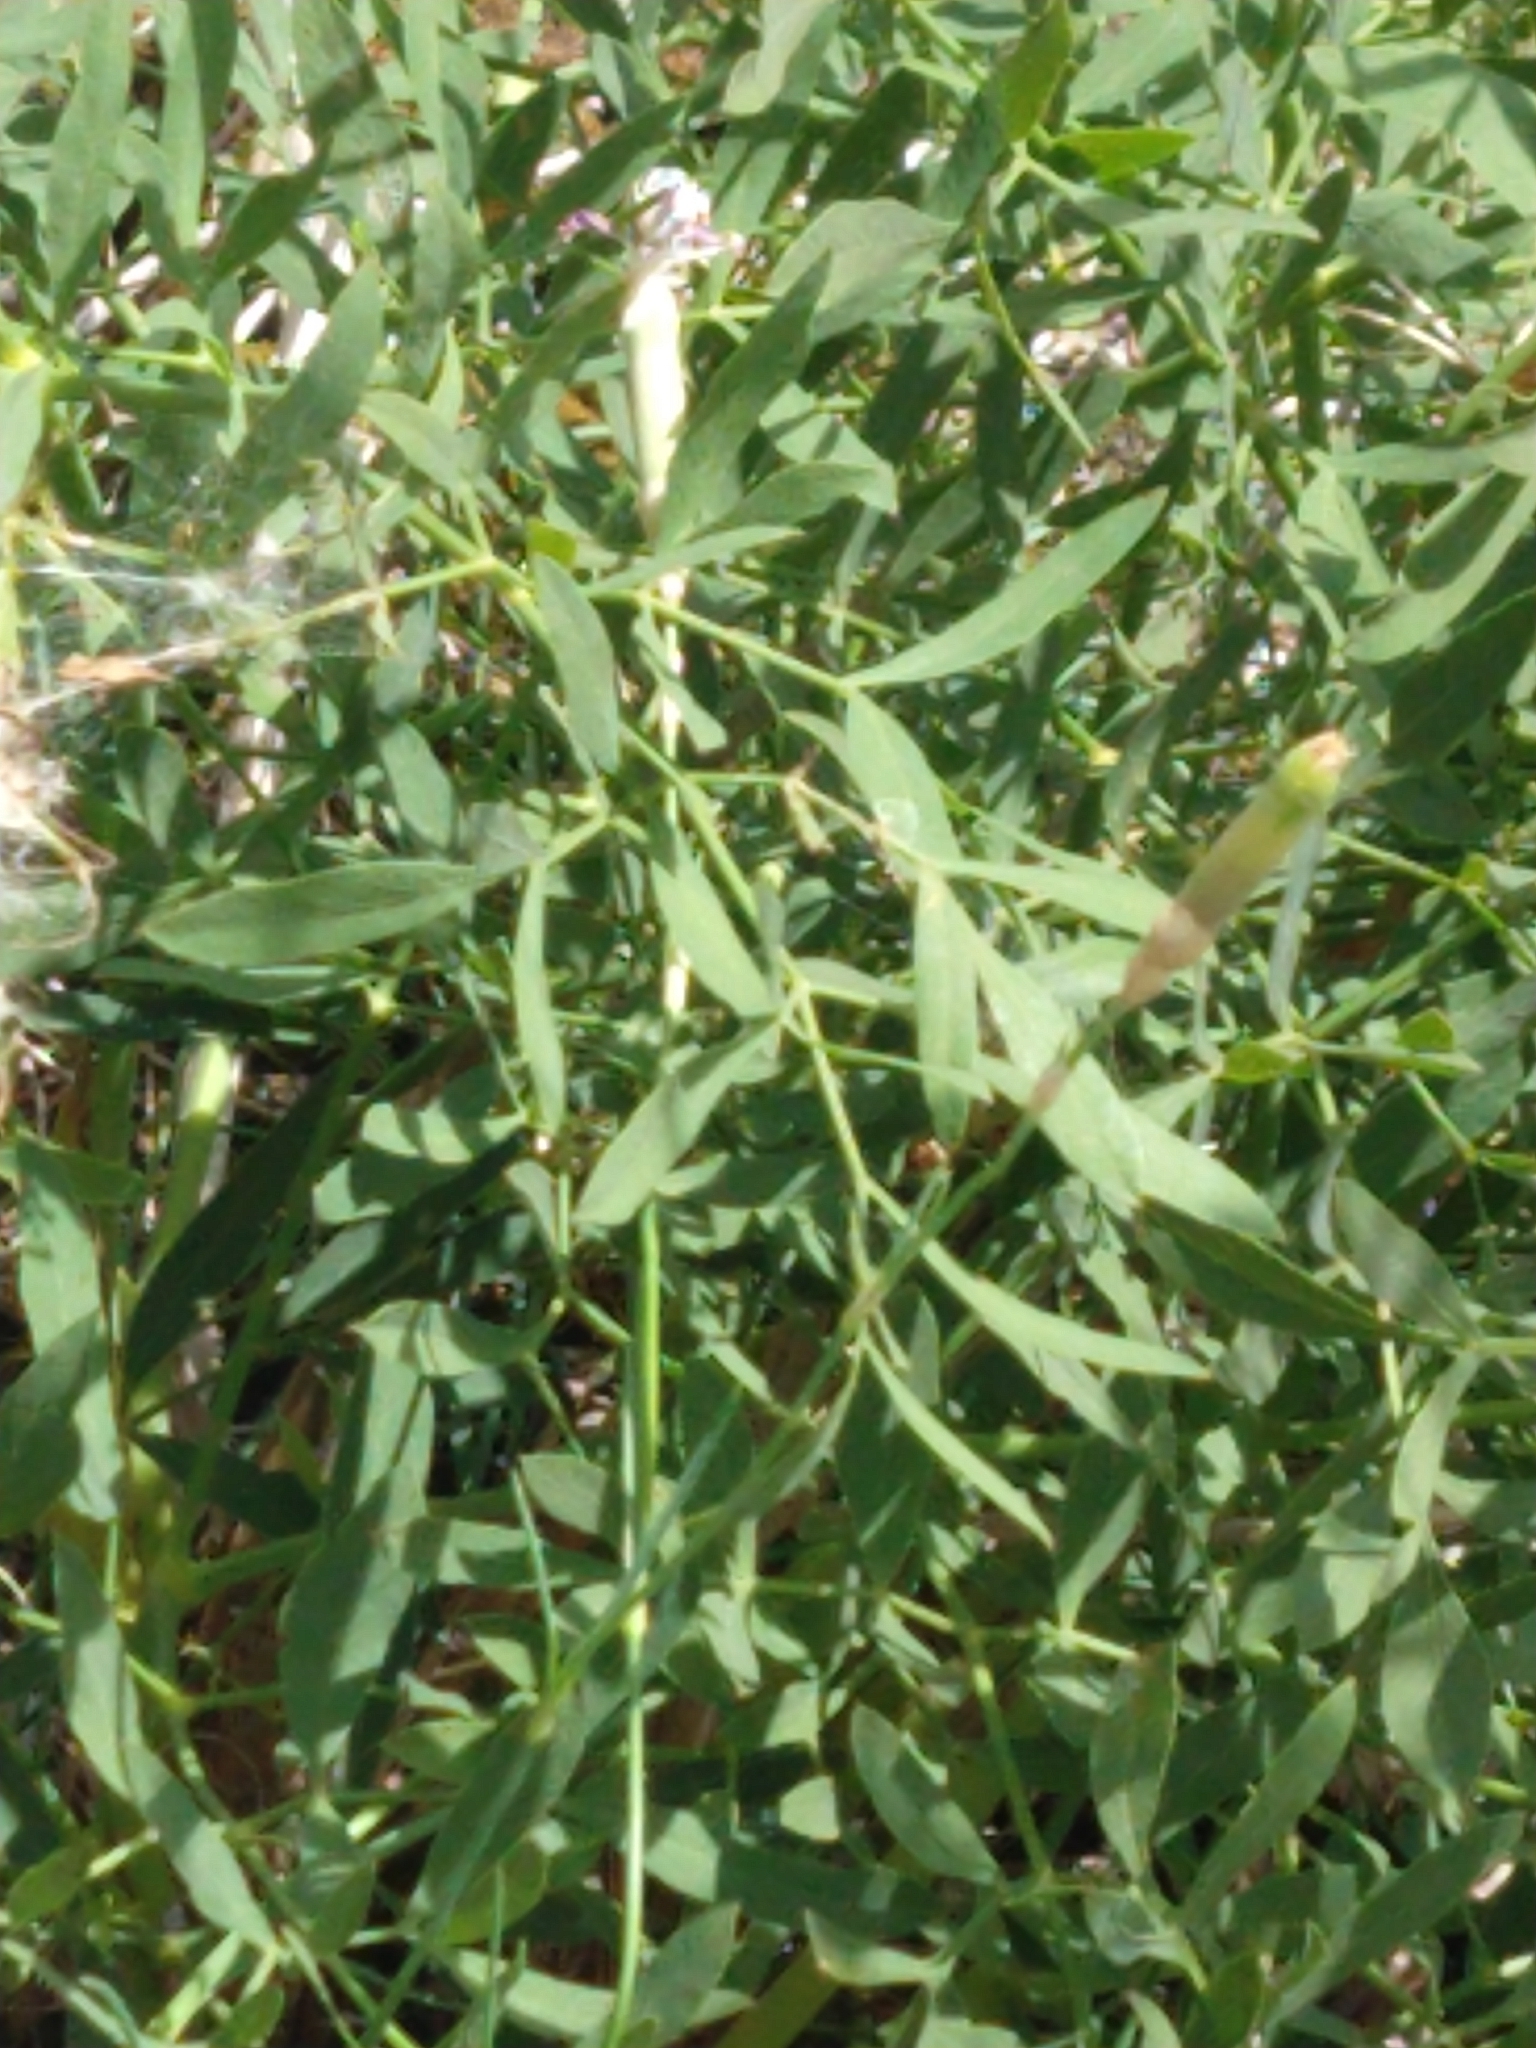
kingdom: Plantae
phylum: Tracheophyta
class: Magnoliopsida
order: Apiales
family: Apiaceae
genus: Siler
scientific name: Siler montanum
